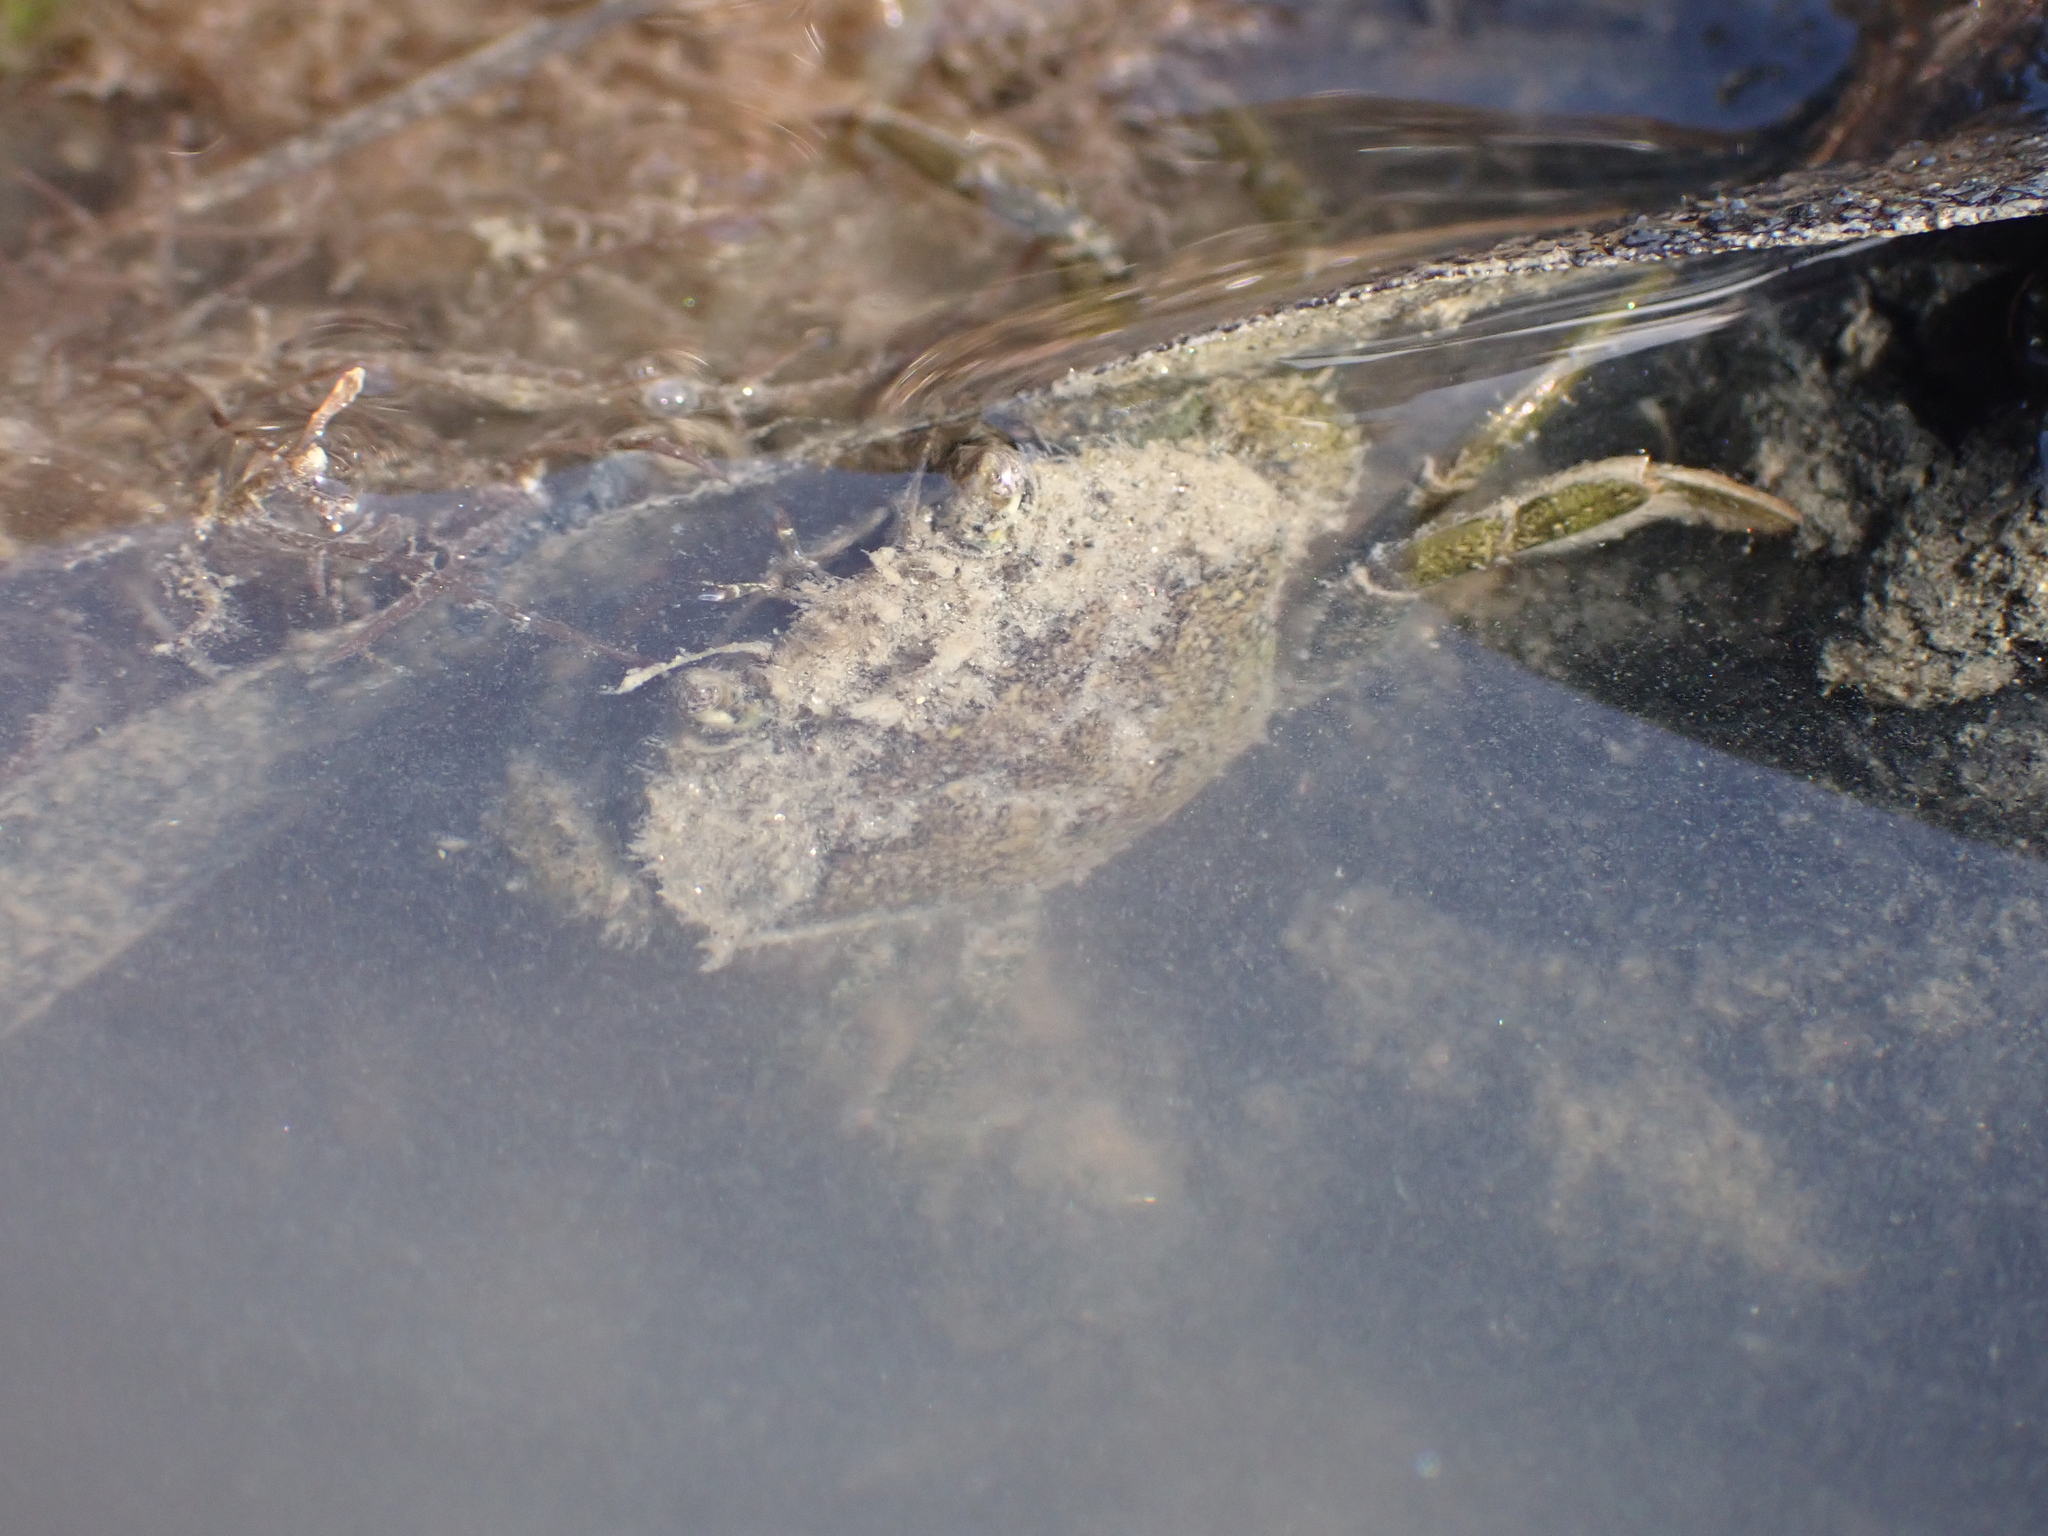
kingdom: Animalia
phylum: Arthropoda
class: Malacostraca
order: Decapoda
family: Carcinidae
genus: Carcinus
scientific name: Carcinus maenas
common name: European green crab
